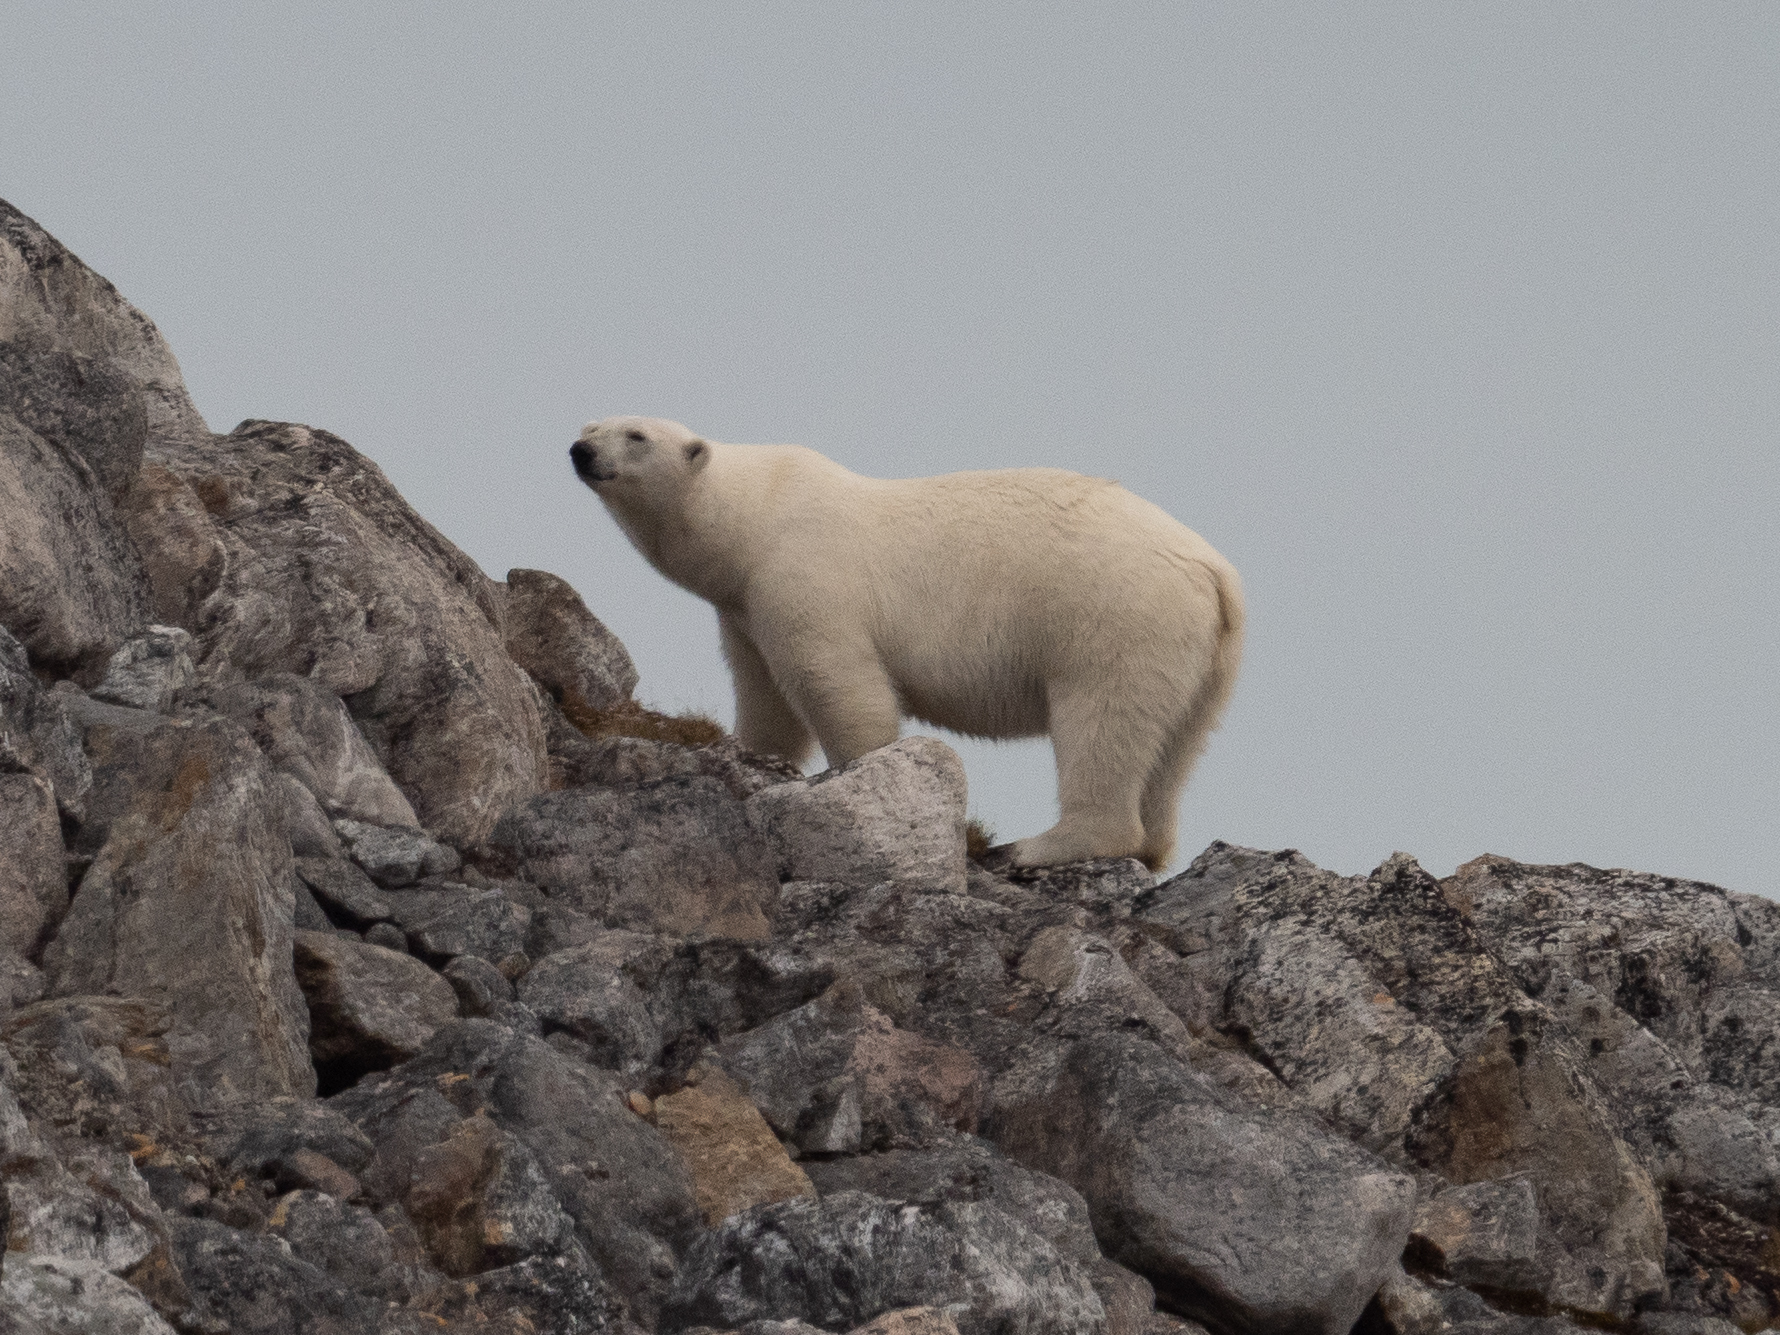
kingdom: Animalia
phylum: Chordata
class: Mammalia
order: Carnivora
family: Ursidae
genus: Ursus
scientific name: Ursus maritimus
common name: Polar bear
